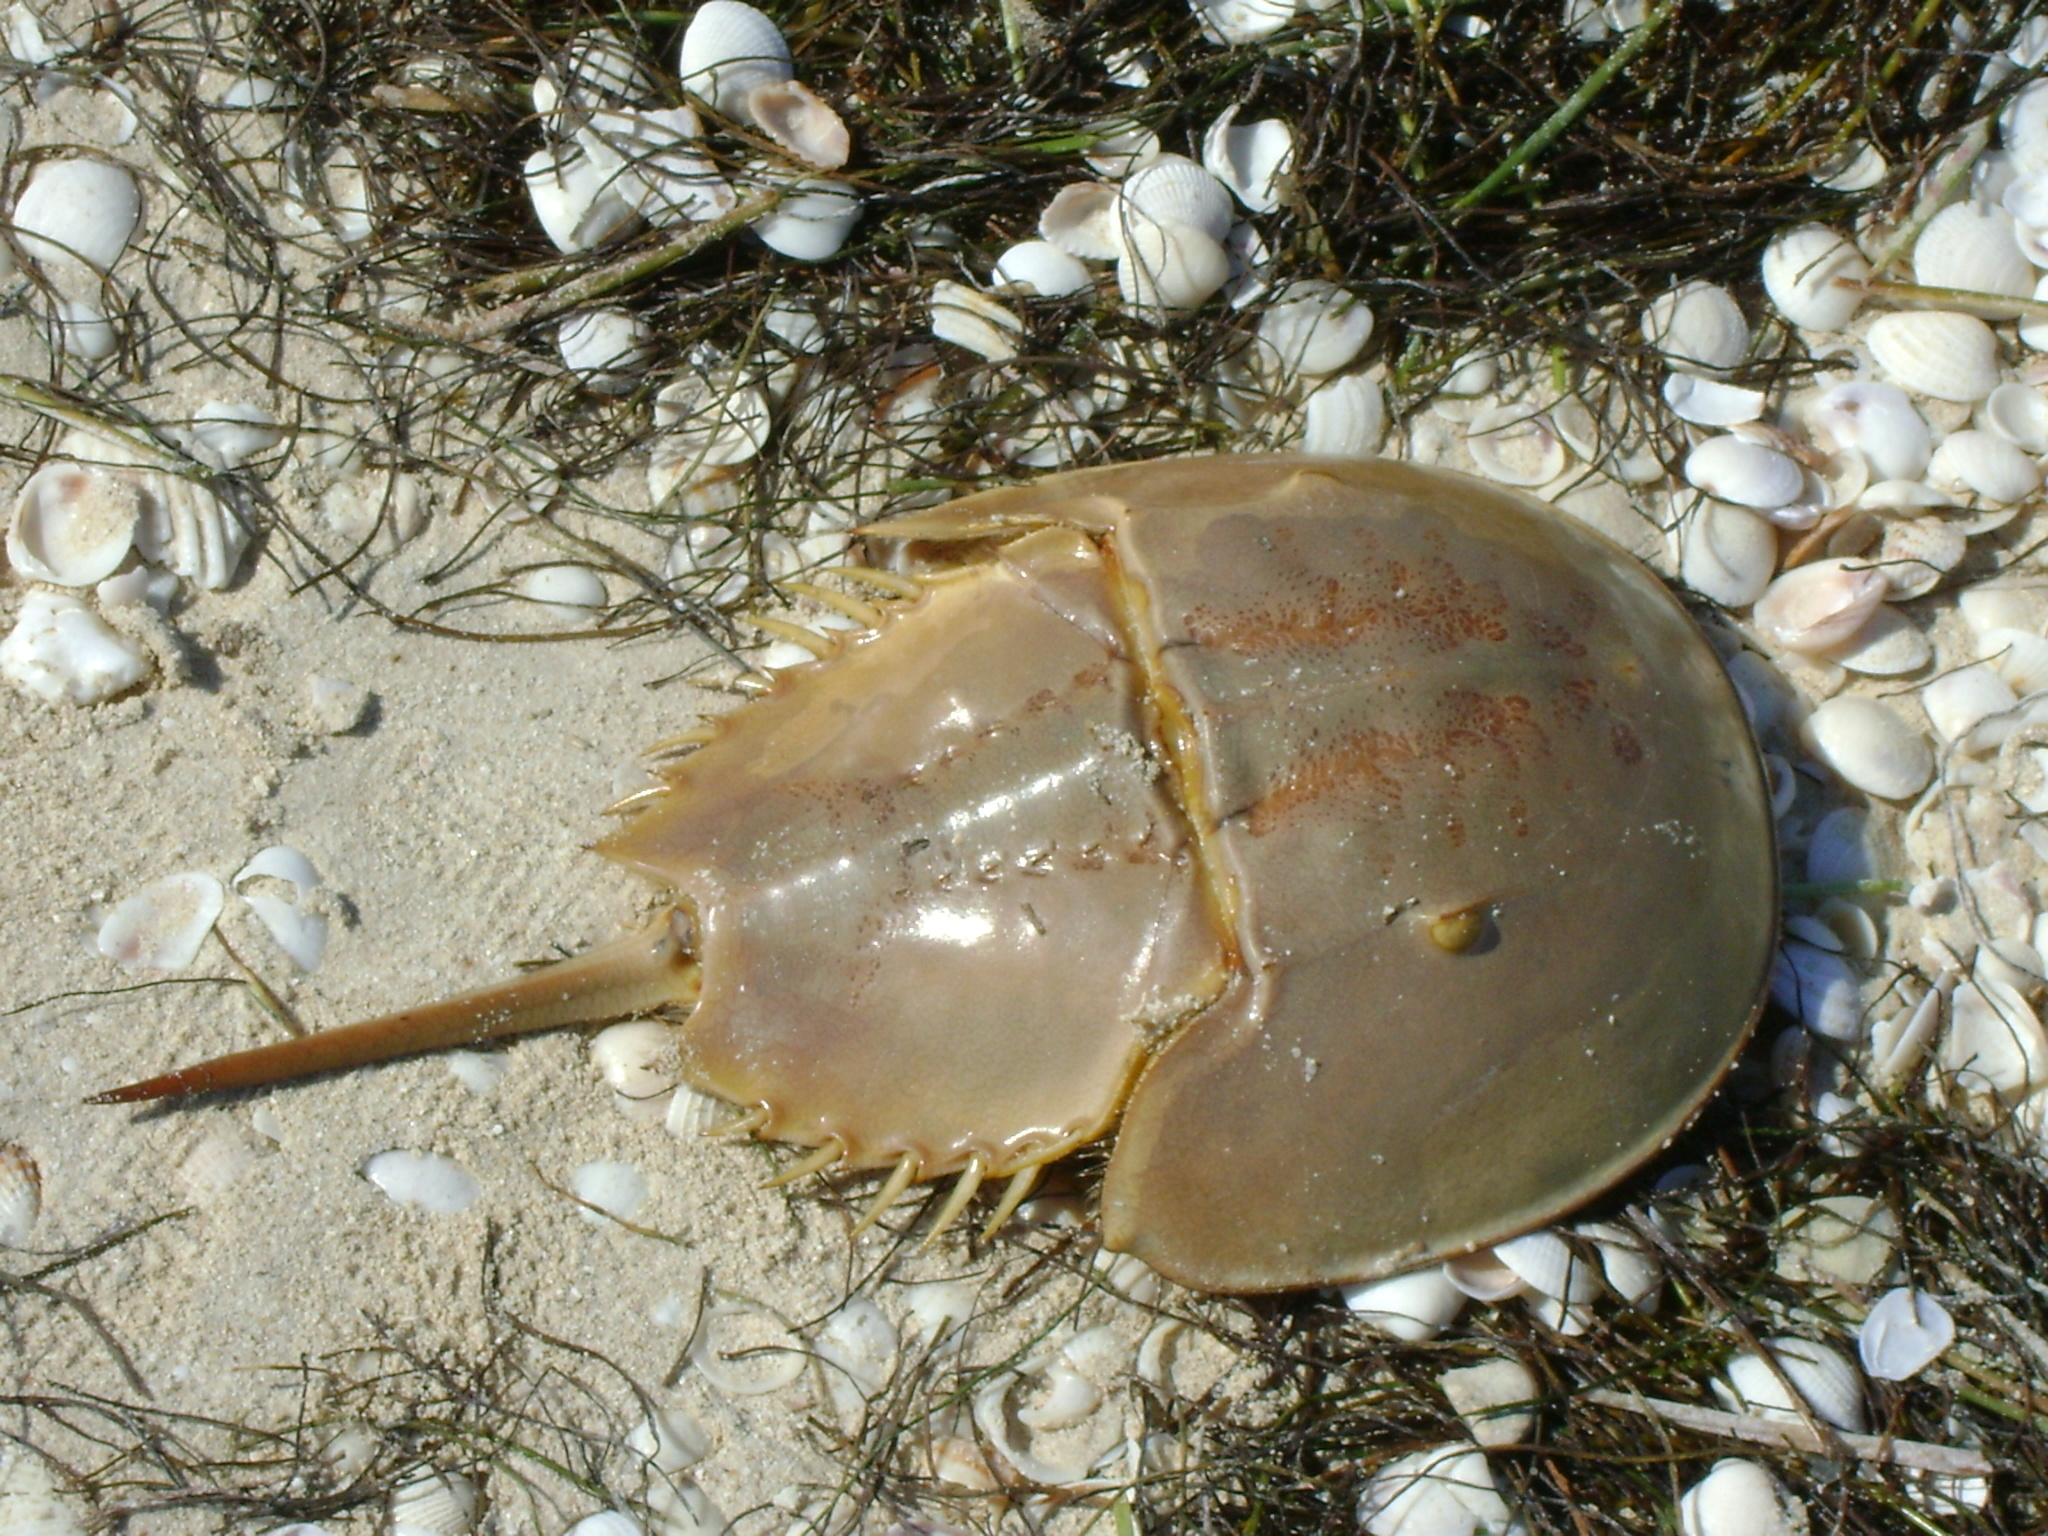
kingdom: Animalia
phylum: Arthropoda
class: Merostomata
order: Xiphosurida
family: Limulidae
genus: Limulus
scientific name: Limulus polyphemus
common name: Horseshoe crab
